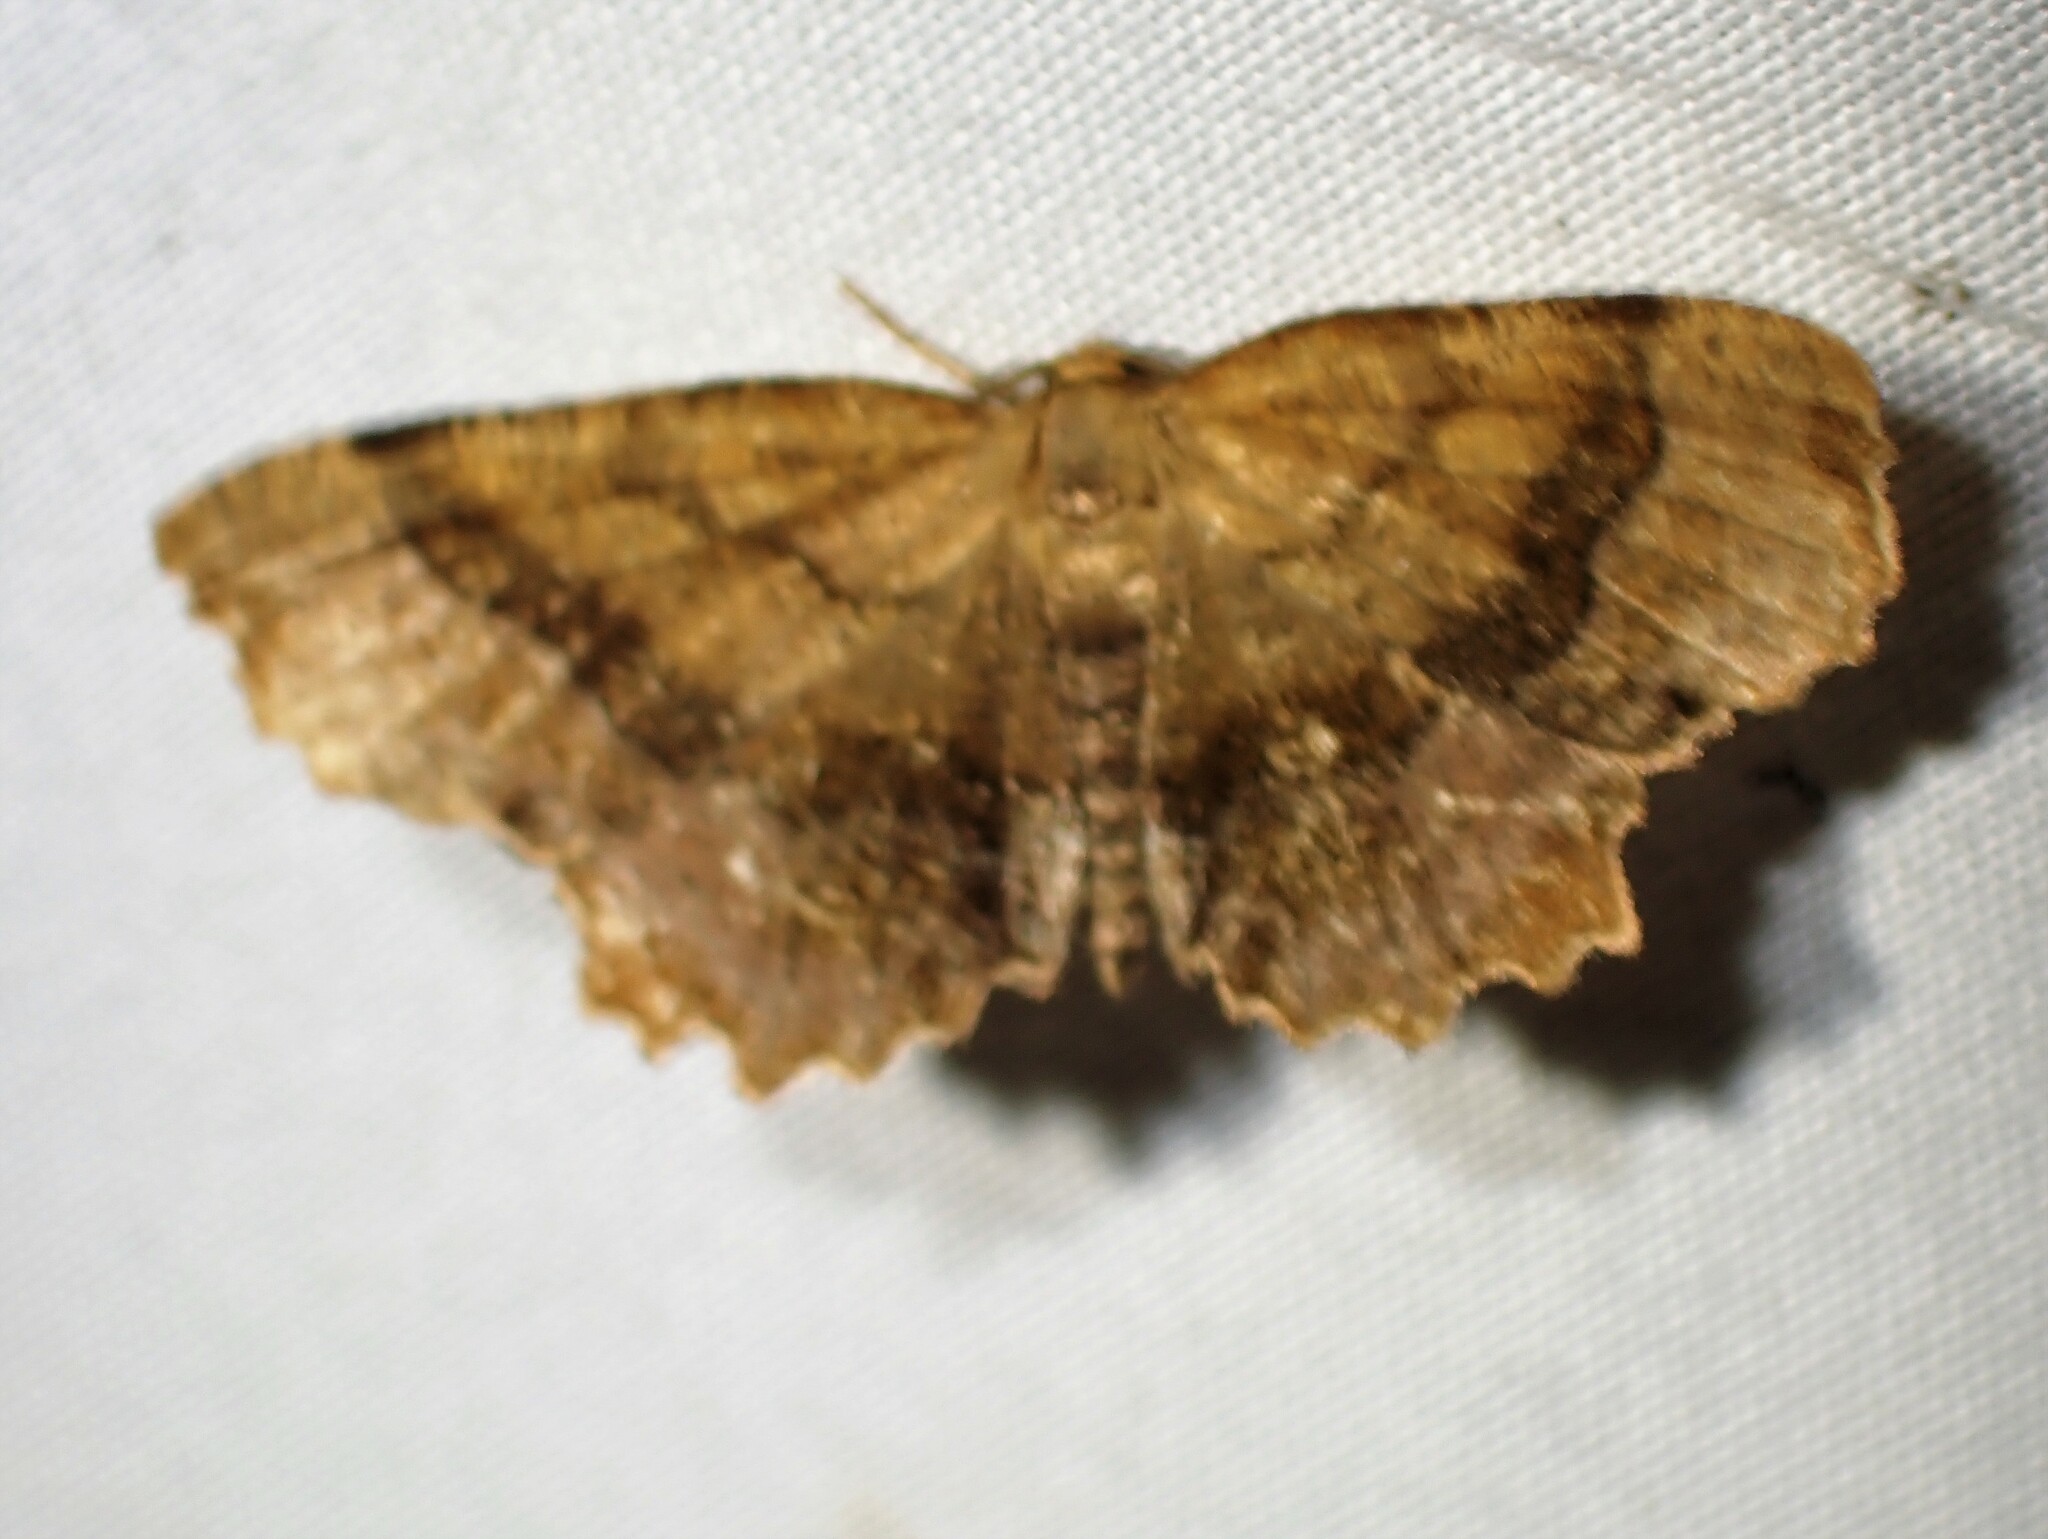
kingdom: Animalia
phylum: Arthropoda
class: Insecta
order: Lepidoptera
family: Geometridae
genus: Cepphis
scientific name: Cepphis armataria
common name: Scallop moth
